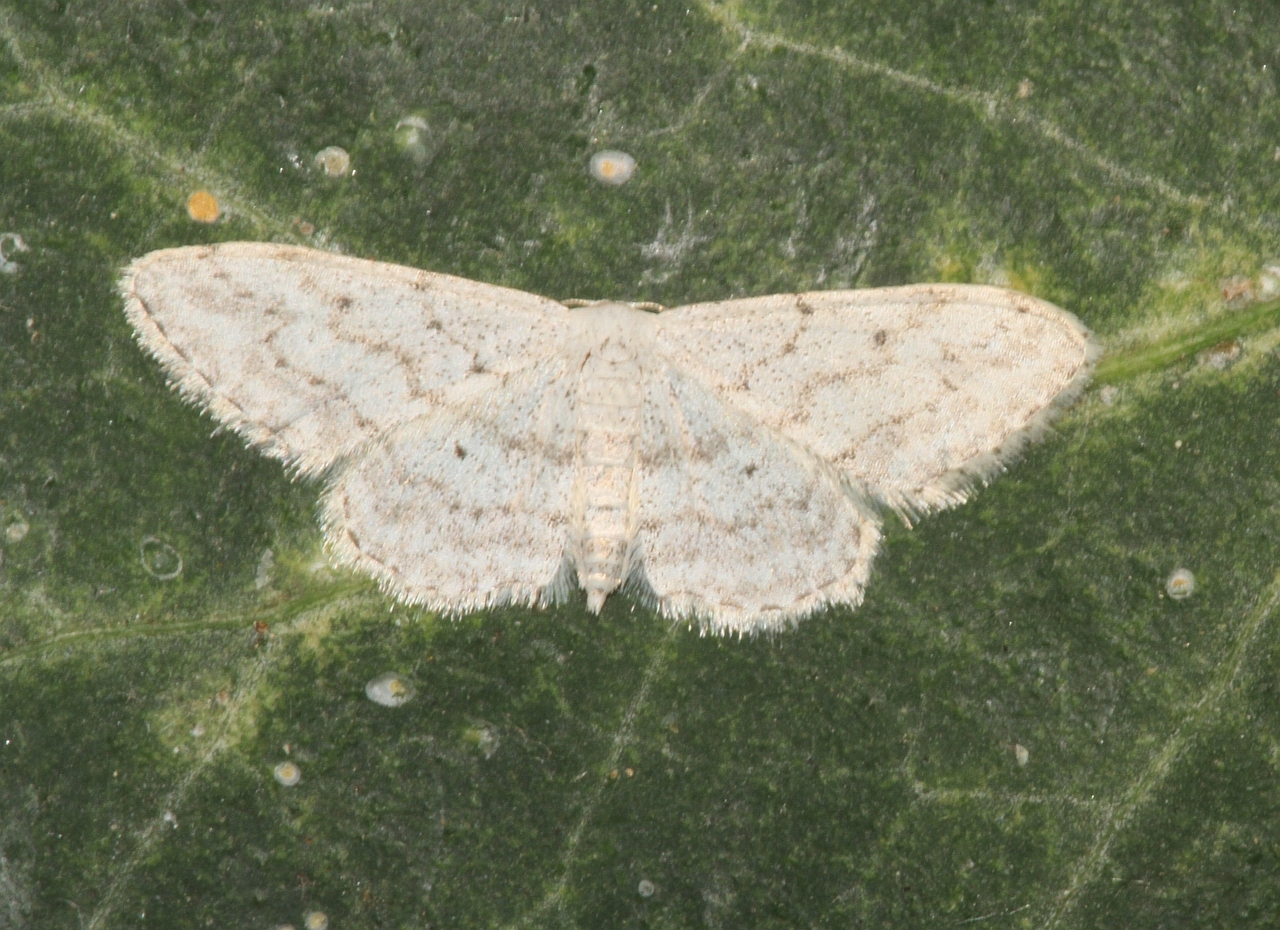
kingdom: Animalia
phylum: Arthropoda
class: Insecta
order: Lepidoptera
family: Geometridae
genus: Idaea
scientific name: Idaea seriata
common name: Small dusty wave
